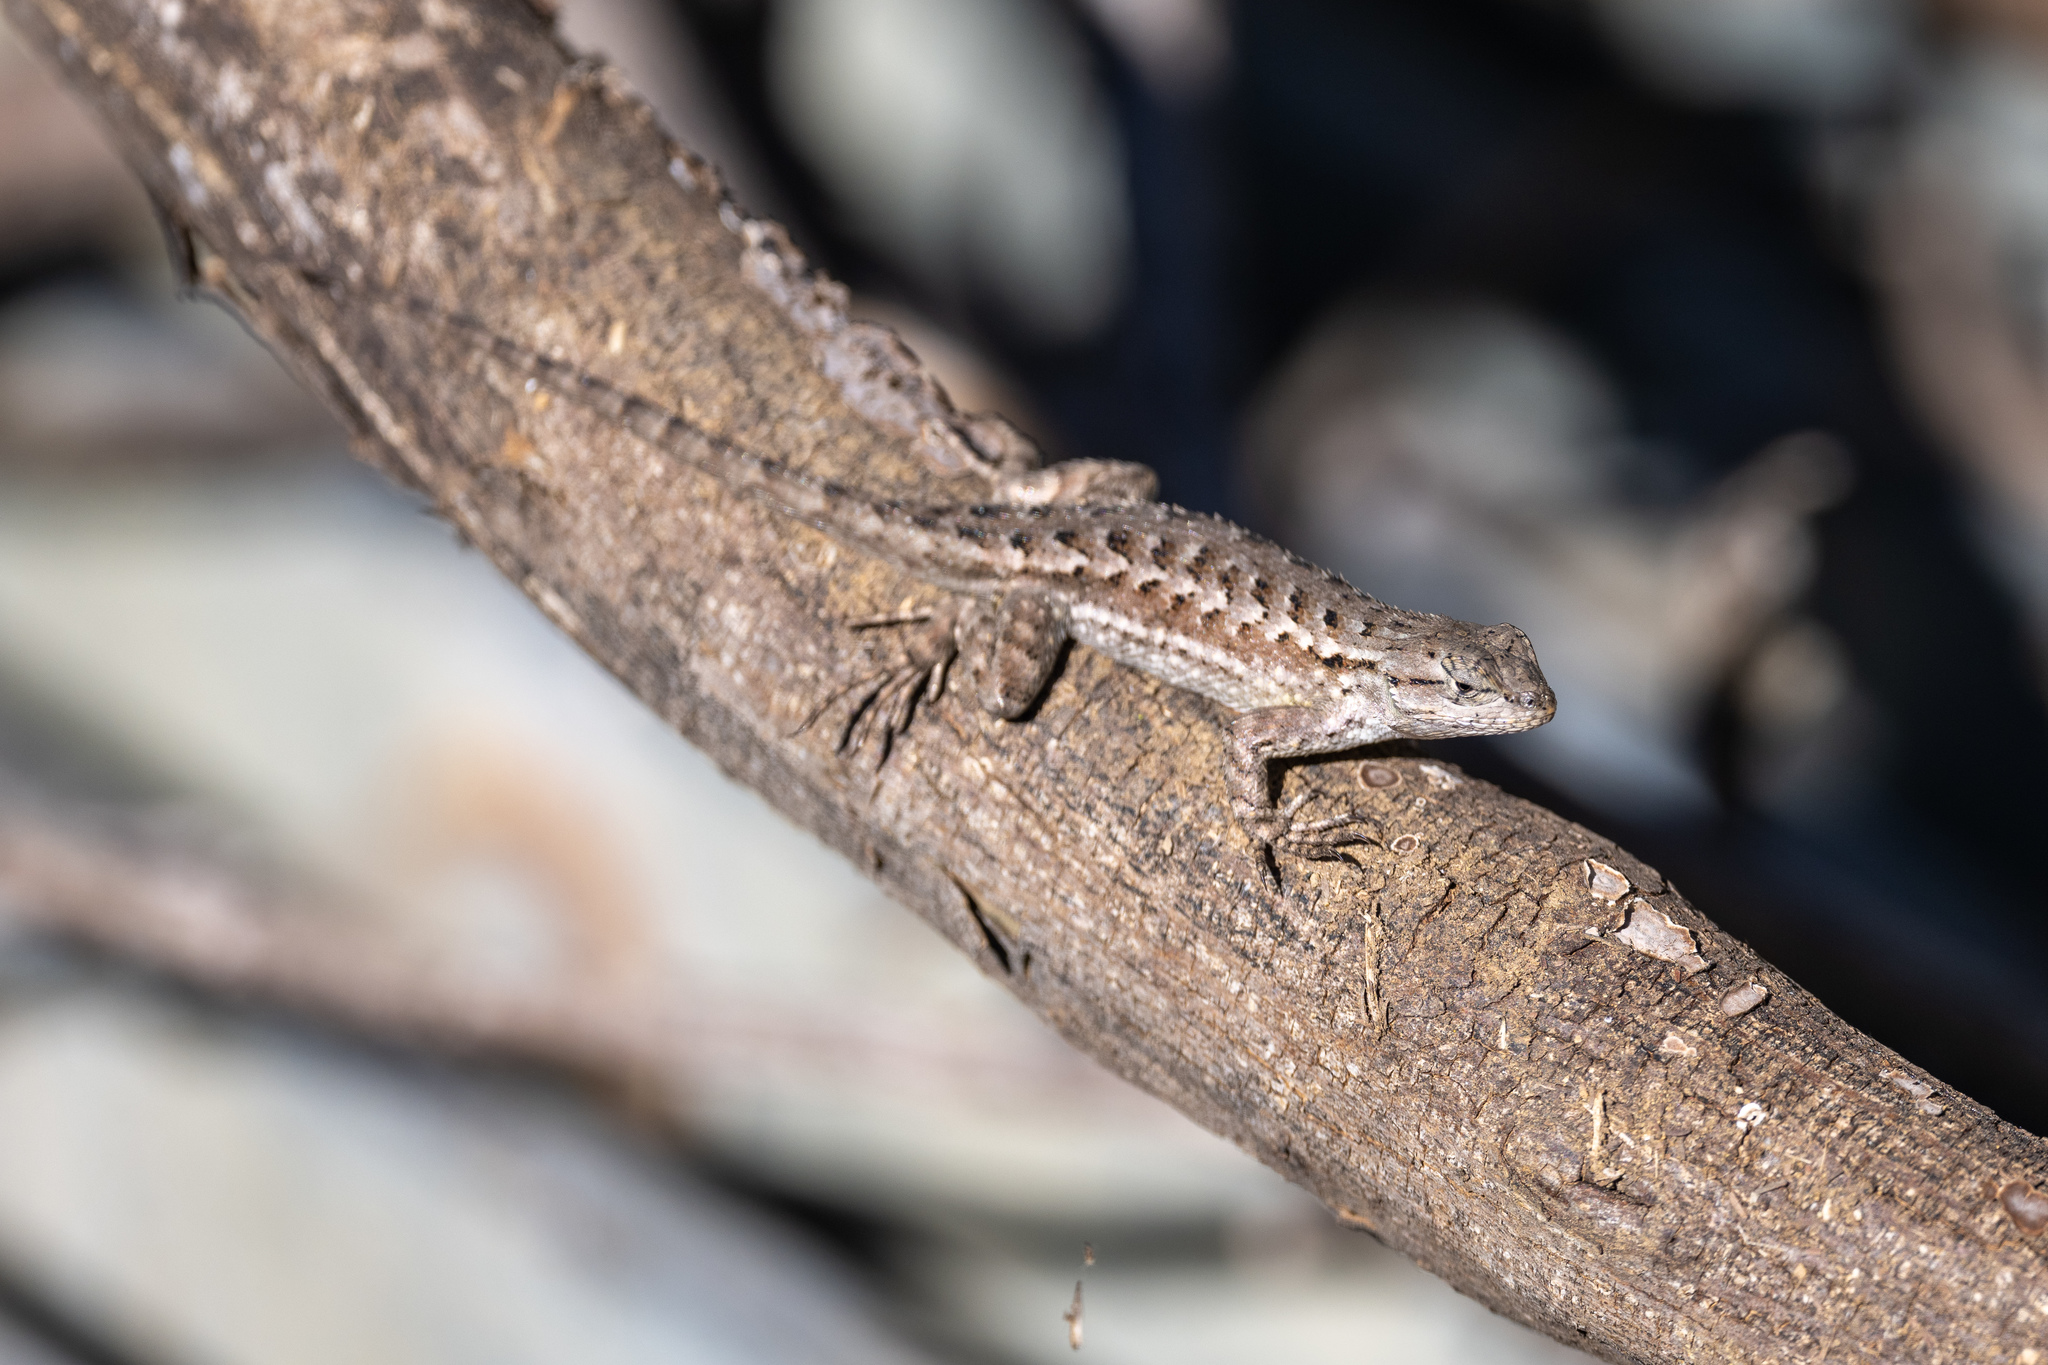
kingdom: Animalia
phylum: Chordata
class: Squamata
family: Phrynosomatidae
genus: Sceloporus
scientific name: Sceloporus occidentalis
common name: Western fence lizard
